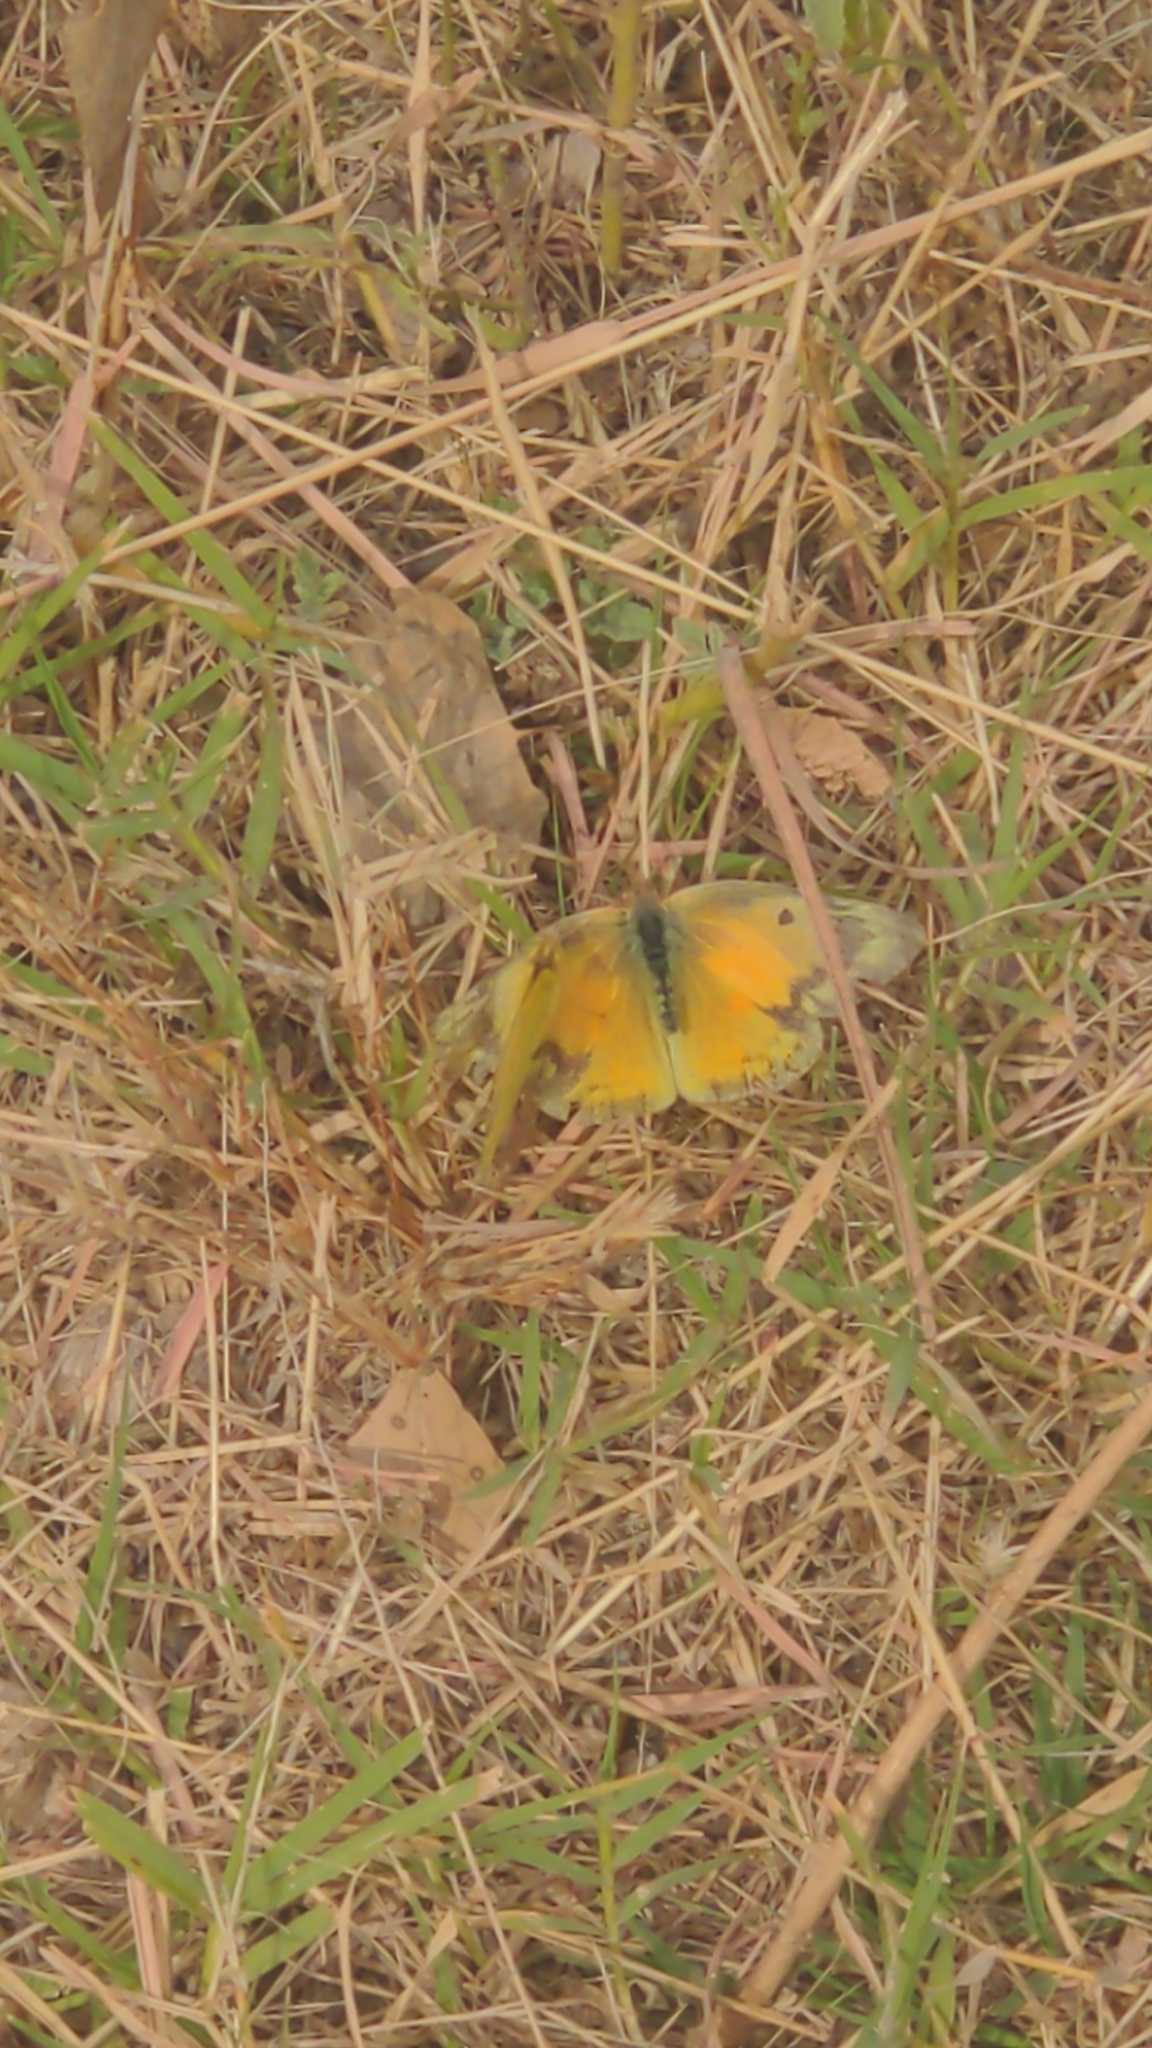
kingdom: Animalia
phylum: Arthropoda
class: Insecta
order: Lepidoptera
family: Pieridae
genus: Colias
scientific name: Colias eurytheme
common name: Alfalfa butterfly
